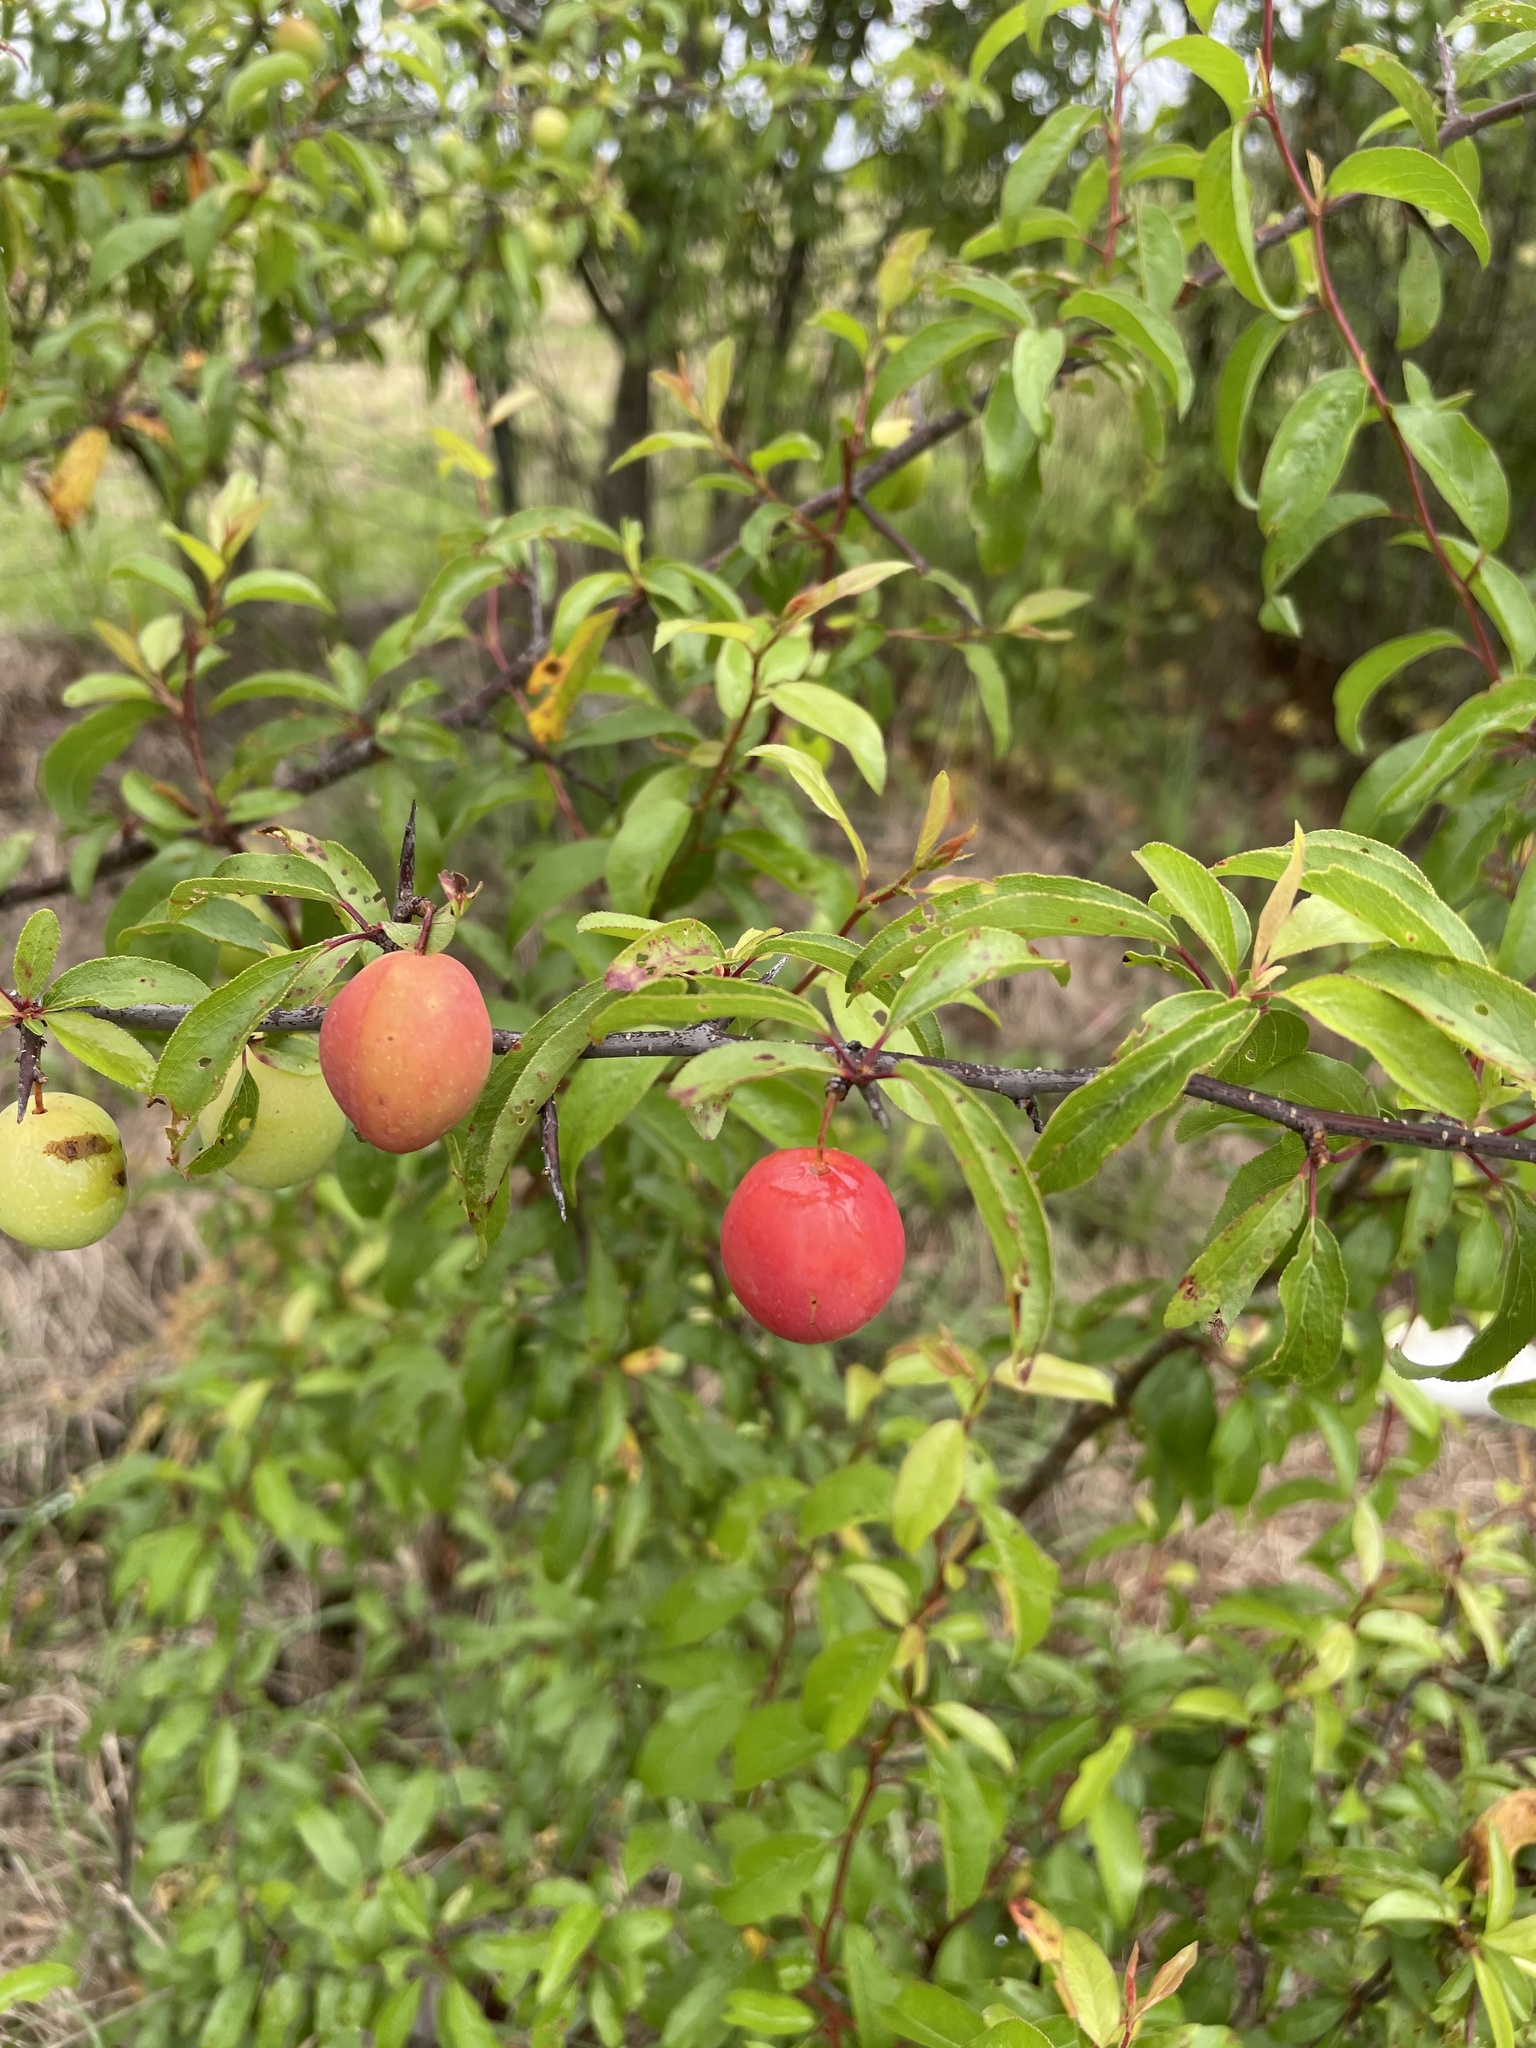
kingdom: Plantae
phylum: Tracheophyta
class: Magnoliopsida
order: Rosales
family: Rosaceae
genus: Prunus
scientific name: Prunus angustifolia
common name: Cherokee plum
